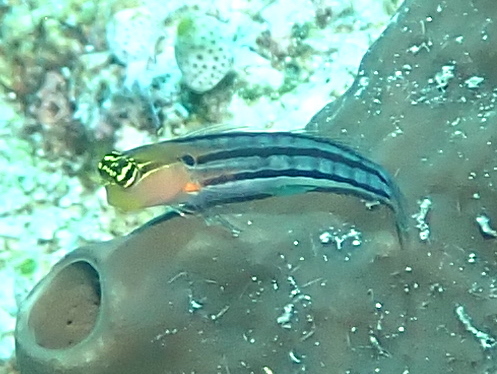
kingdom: Animalia
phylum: Chordata
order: Perciformes
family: Blenniidae
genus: Ecsenius
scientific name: Ecsenius axelrodi
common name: Axelrod's clown blenny
